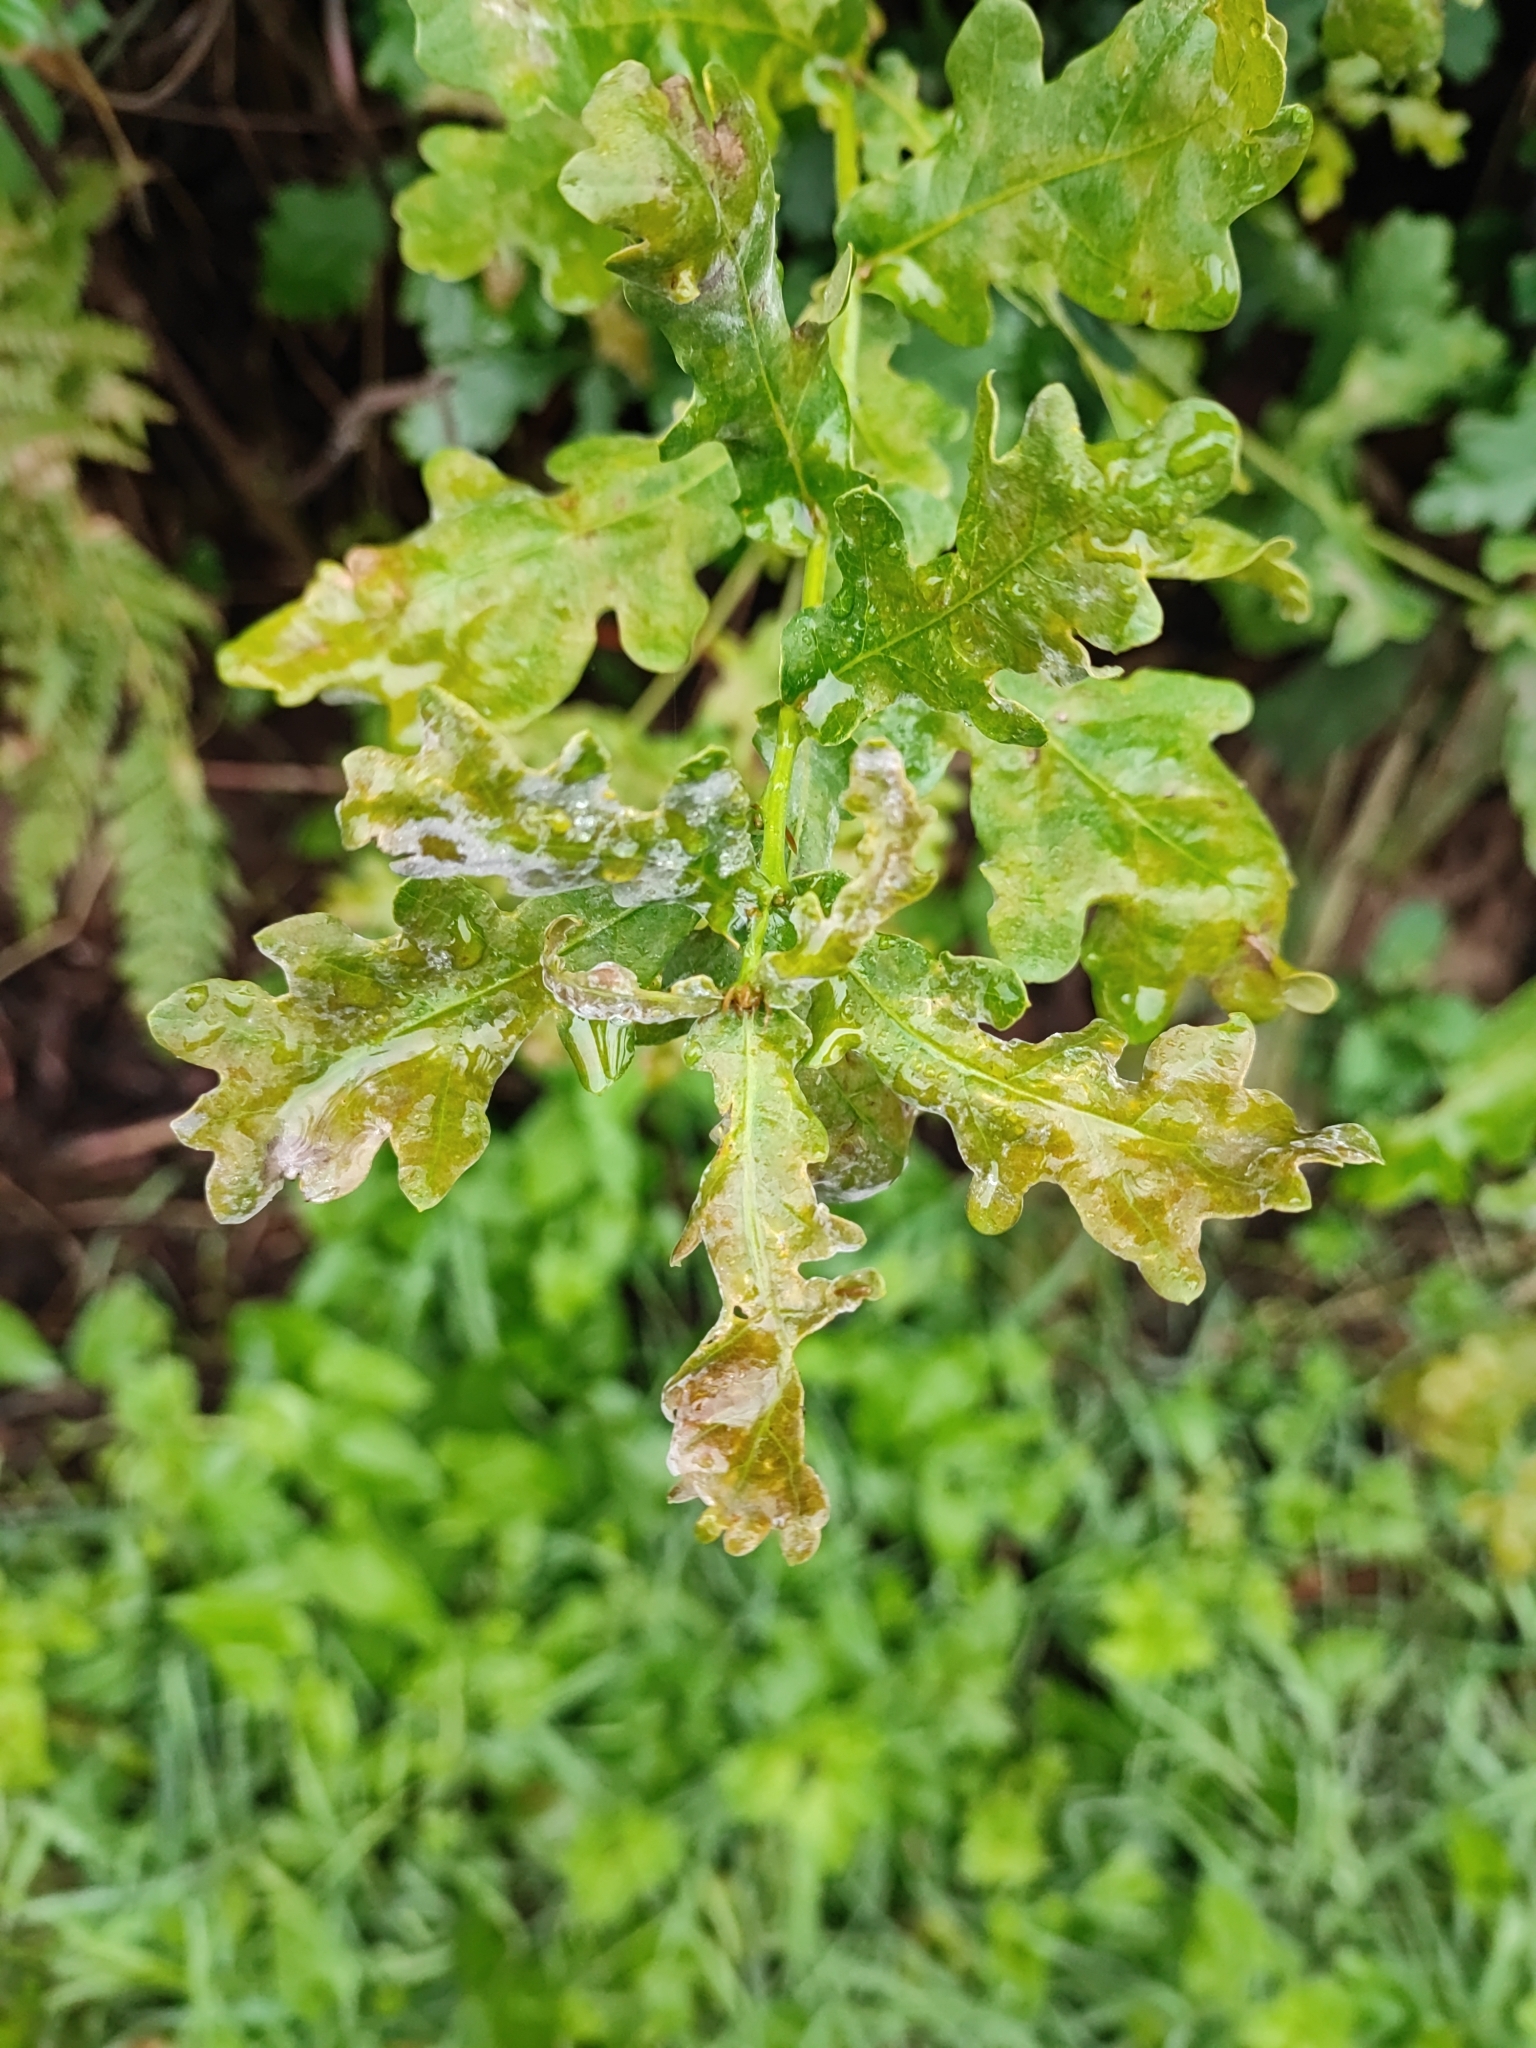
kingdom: Plantae
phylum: Tracheophyta
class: Magnoliopsida
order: Fagales
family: Fagaceae
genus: Quercus
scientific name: Quercus robur
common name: Pedunculate oak
